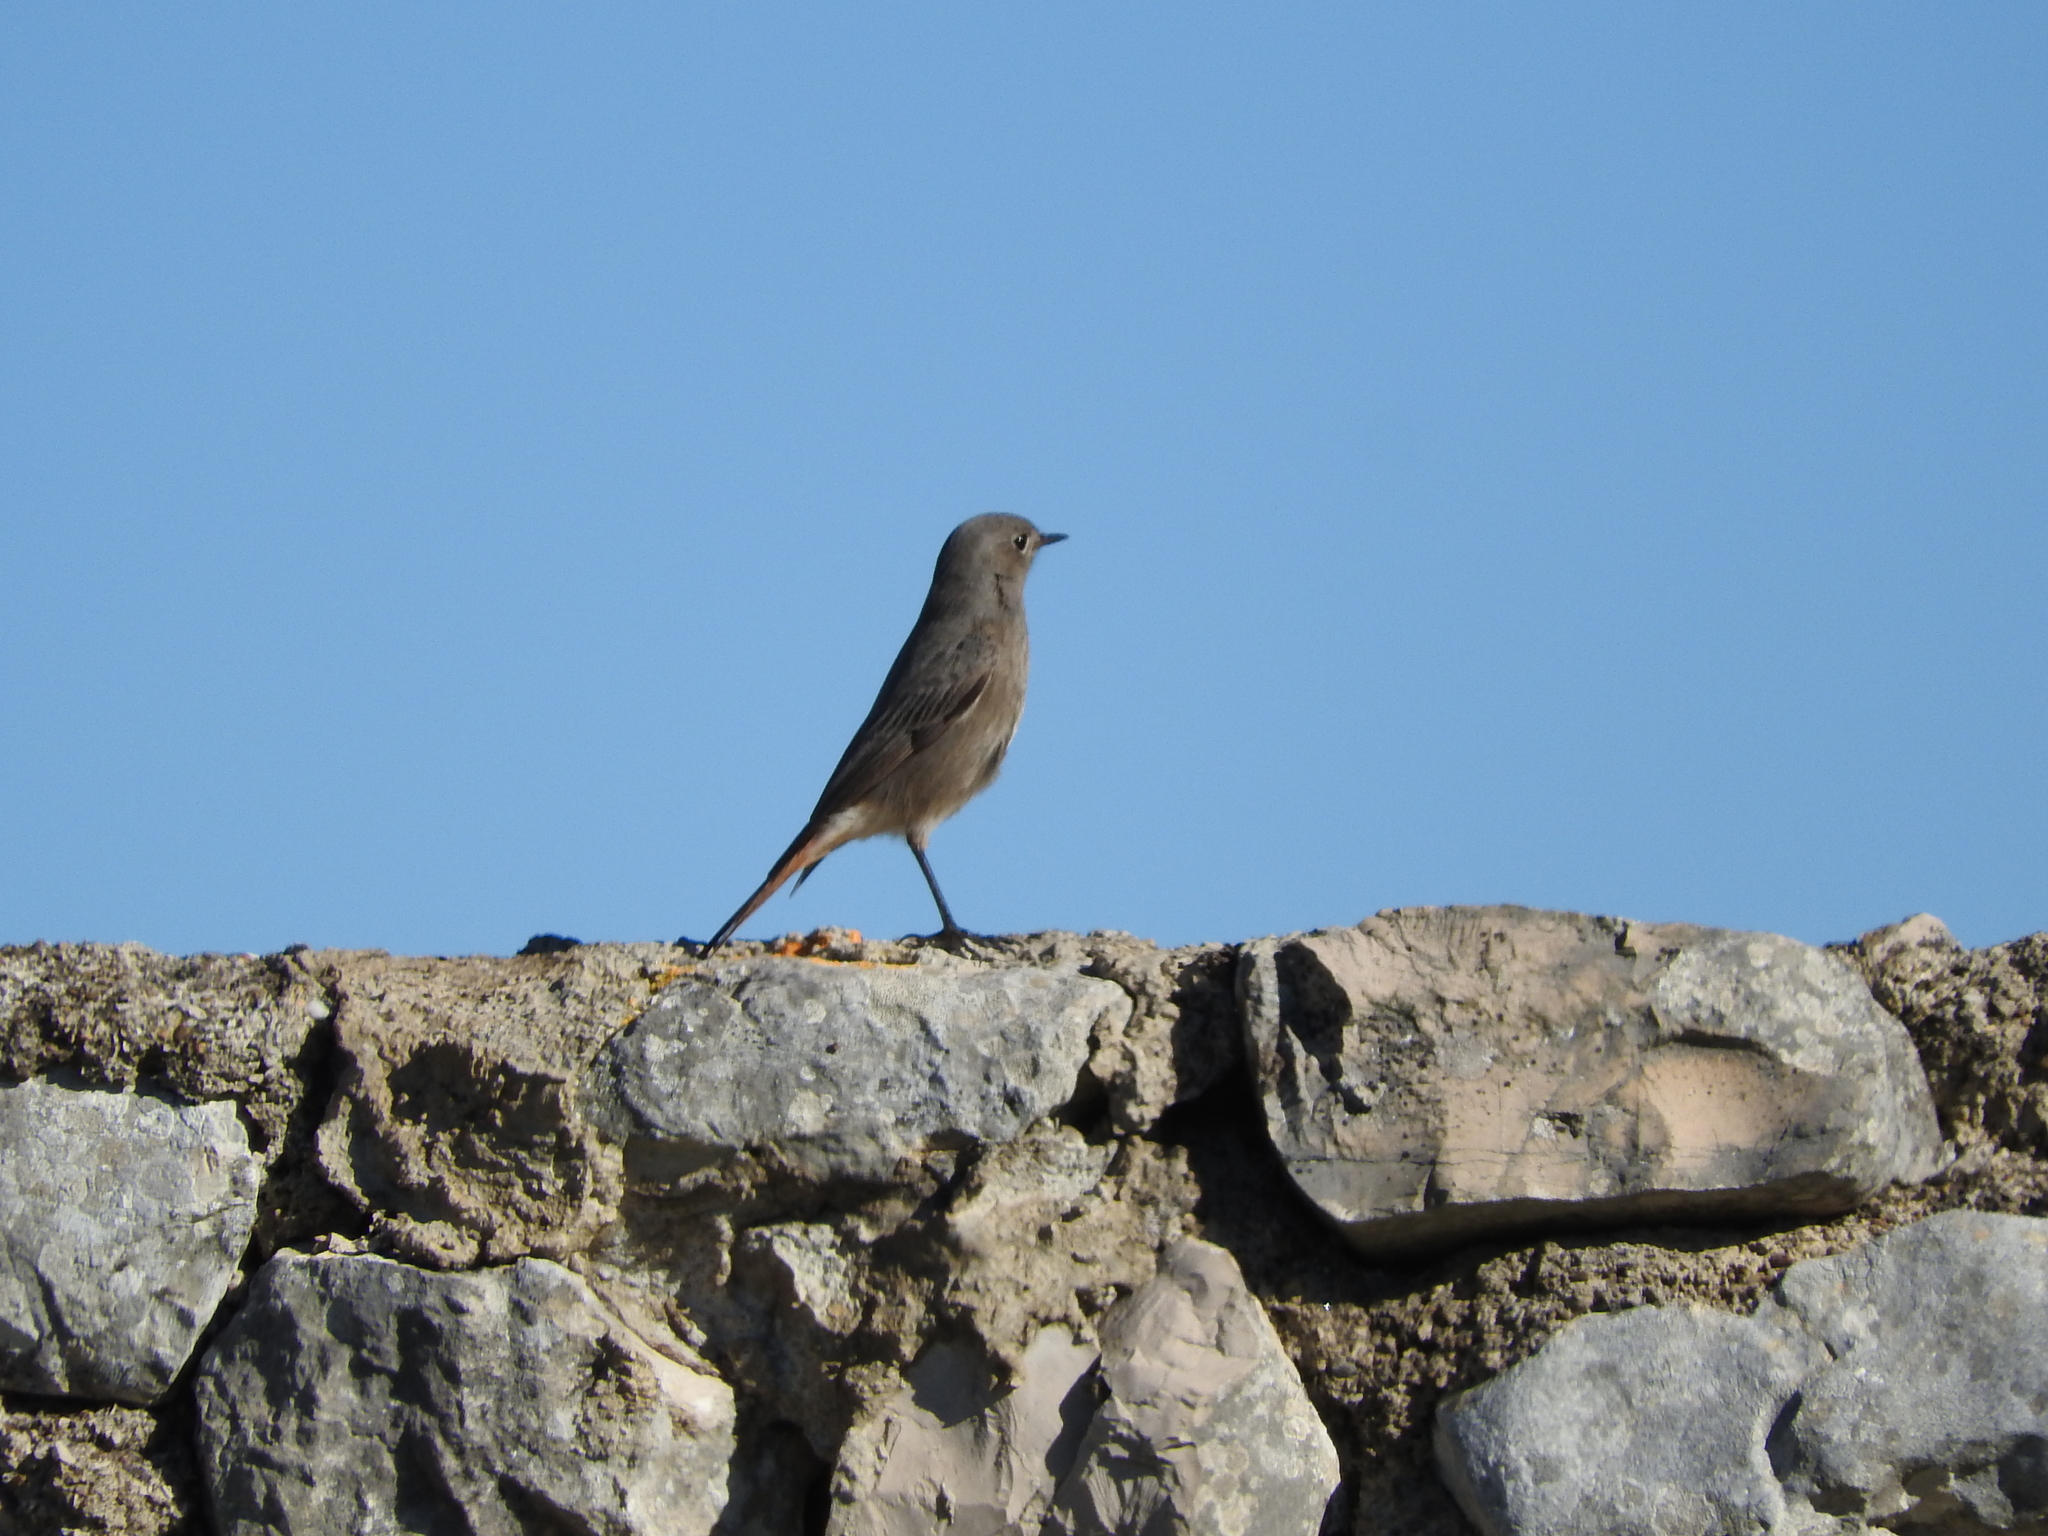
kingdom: Animalia
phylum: Chordata
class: Aves
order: Passeriformes
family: Muscicapidae
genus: Phoenicurus
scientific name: Phoenicurus ochruros
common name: Black redstart
